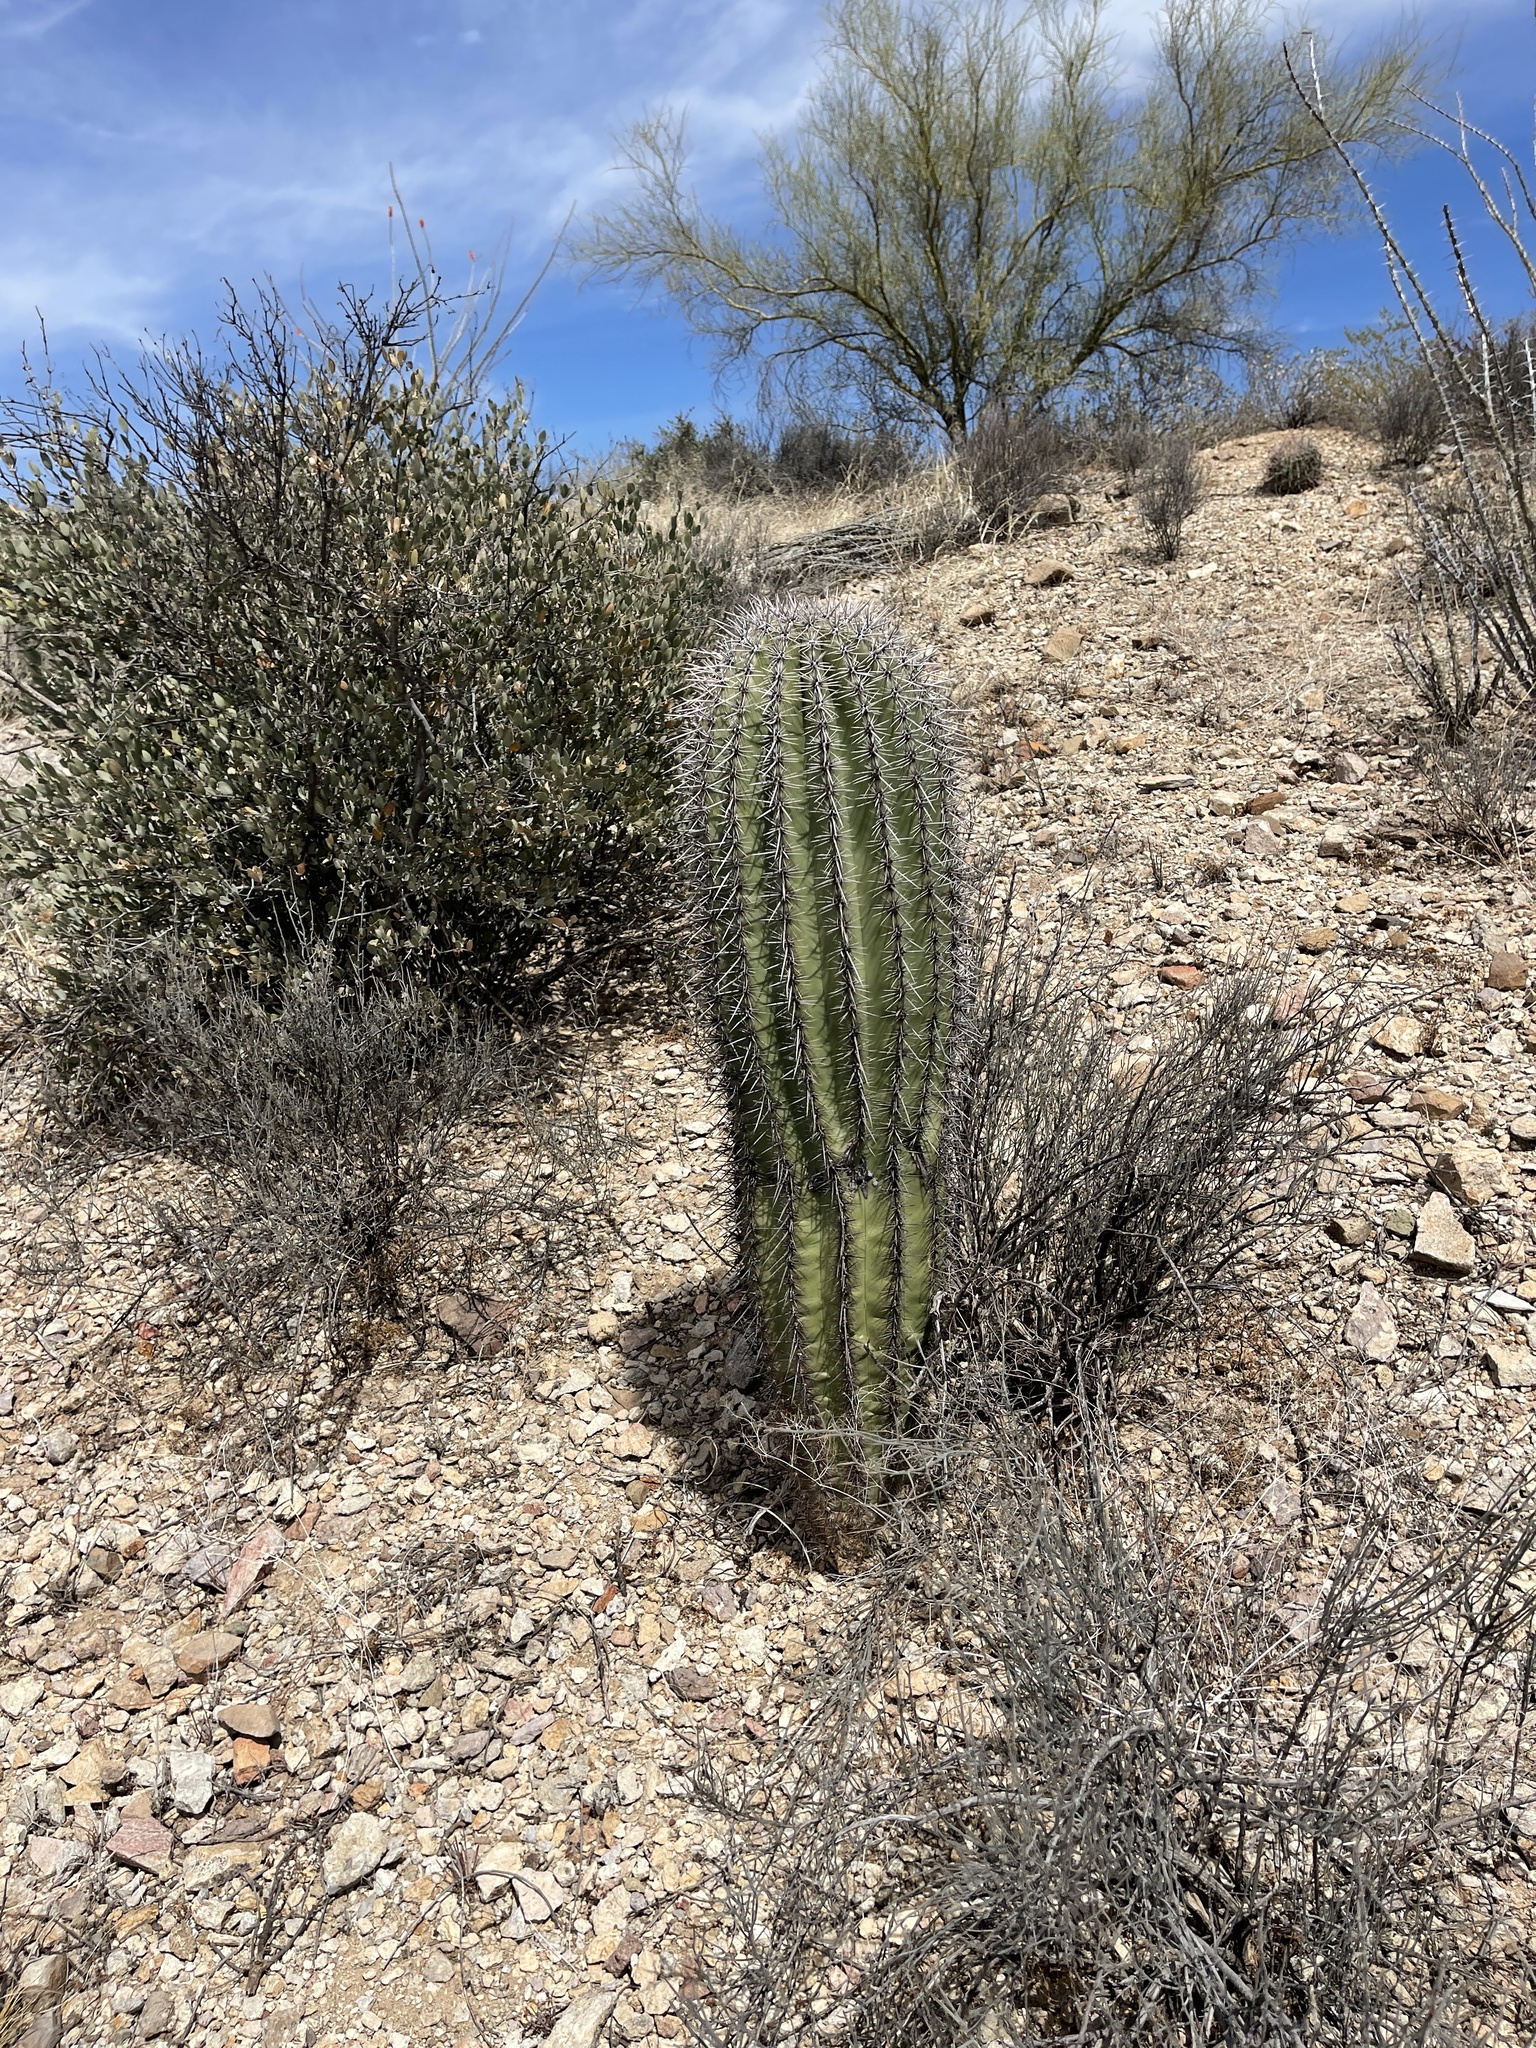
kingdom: Plantae
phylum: Tracheophyta
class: Magnoliopsida
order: Caryophyllales
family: Cactaceae
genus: Carnegiea
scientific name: Carnegiea gigantea
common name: Saguaro
